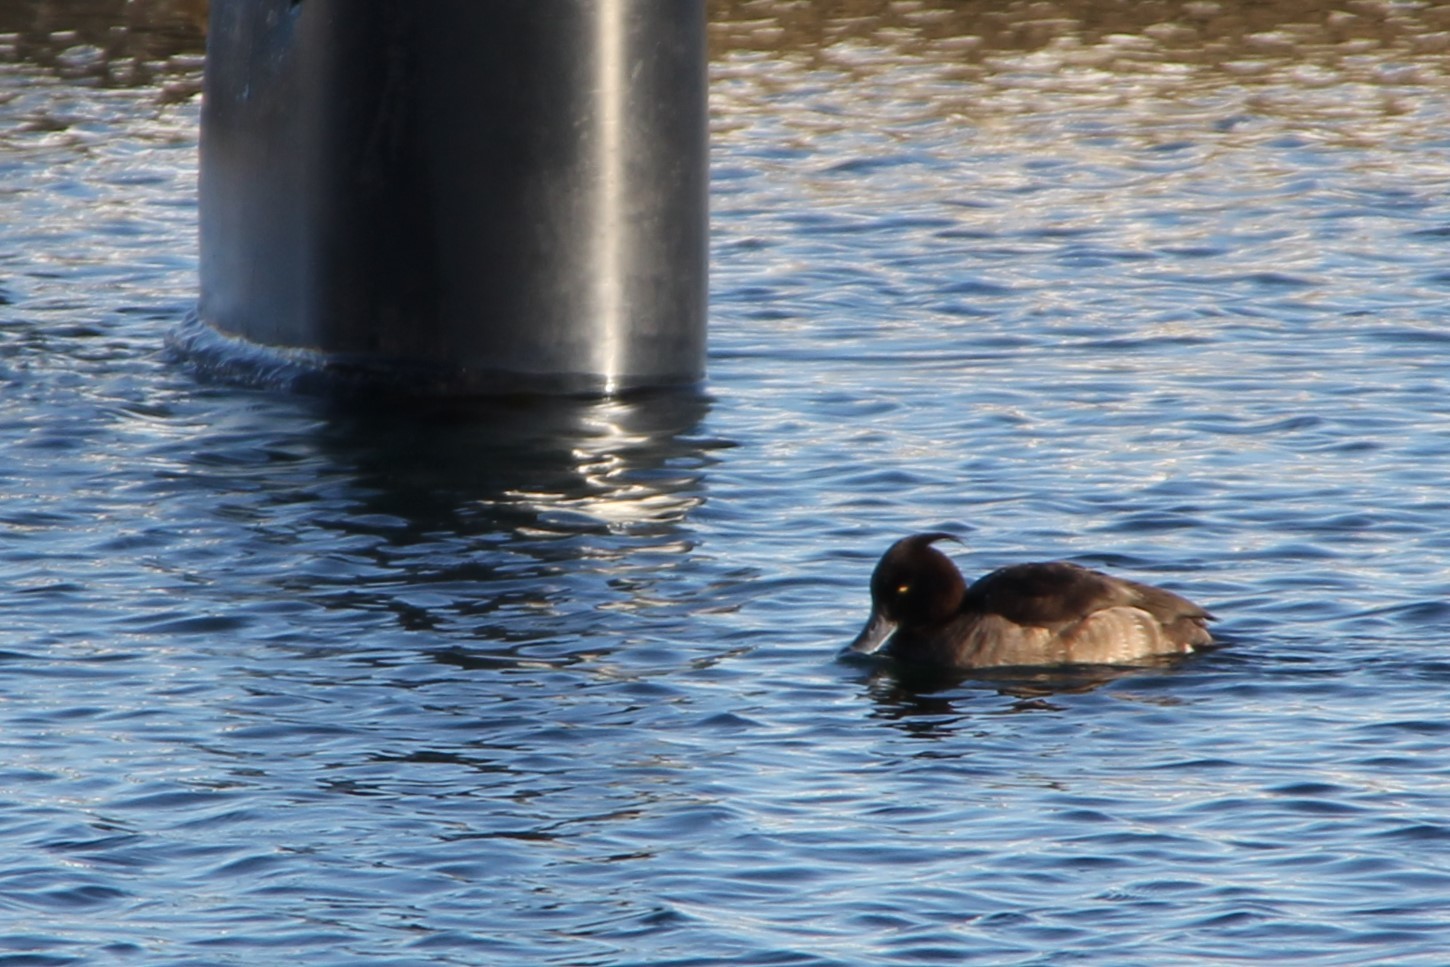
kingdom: Animalia
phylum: Chordata
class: Aves
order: Anseriformes
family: Anatidae
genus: Aythya
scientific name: Aythya fuligula
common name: Tufted duck
